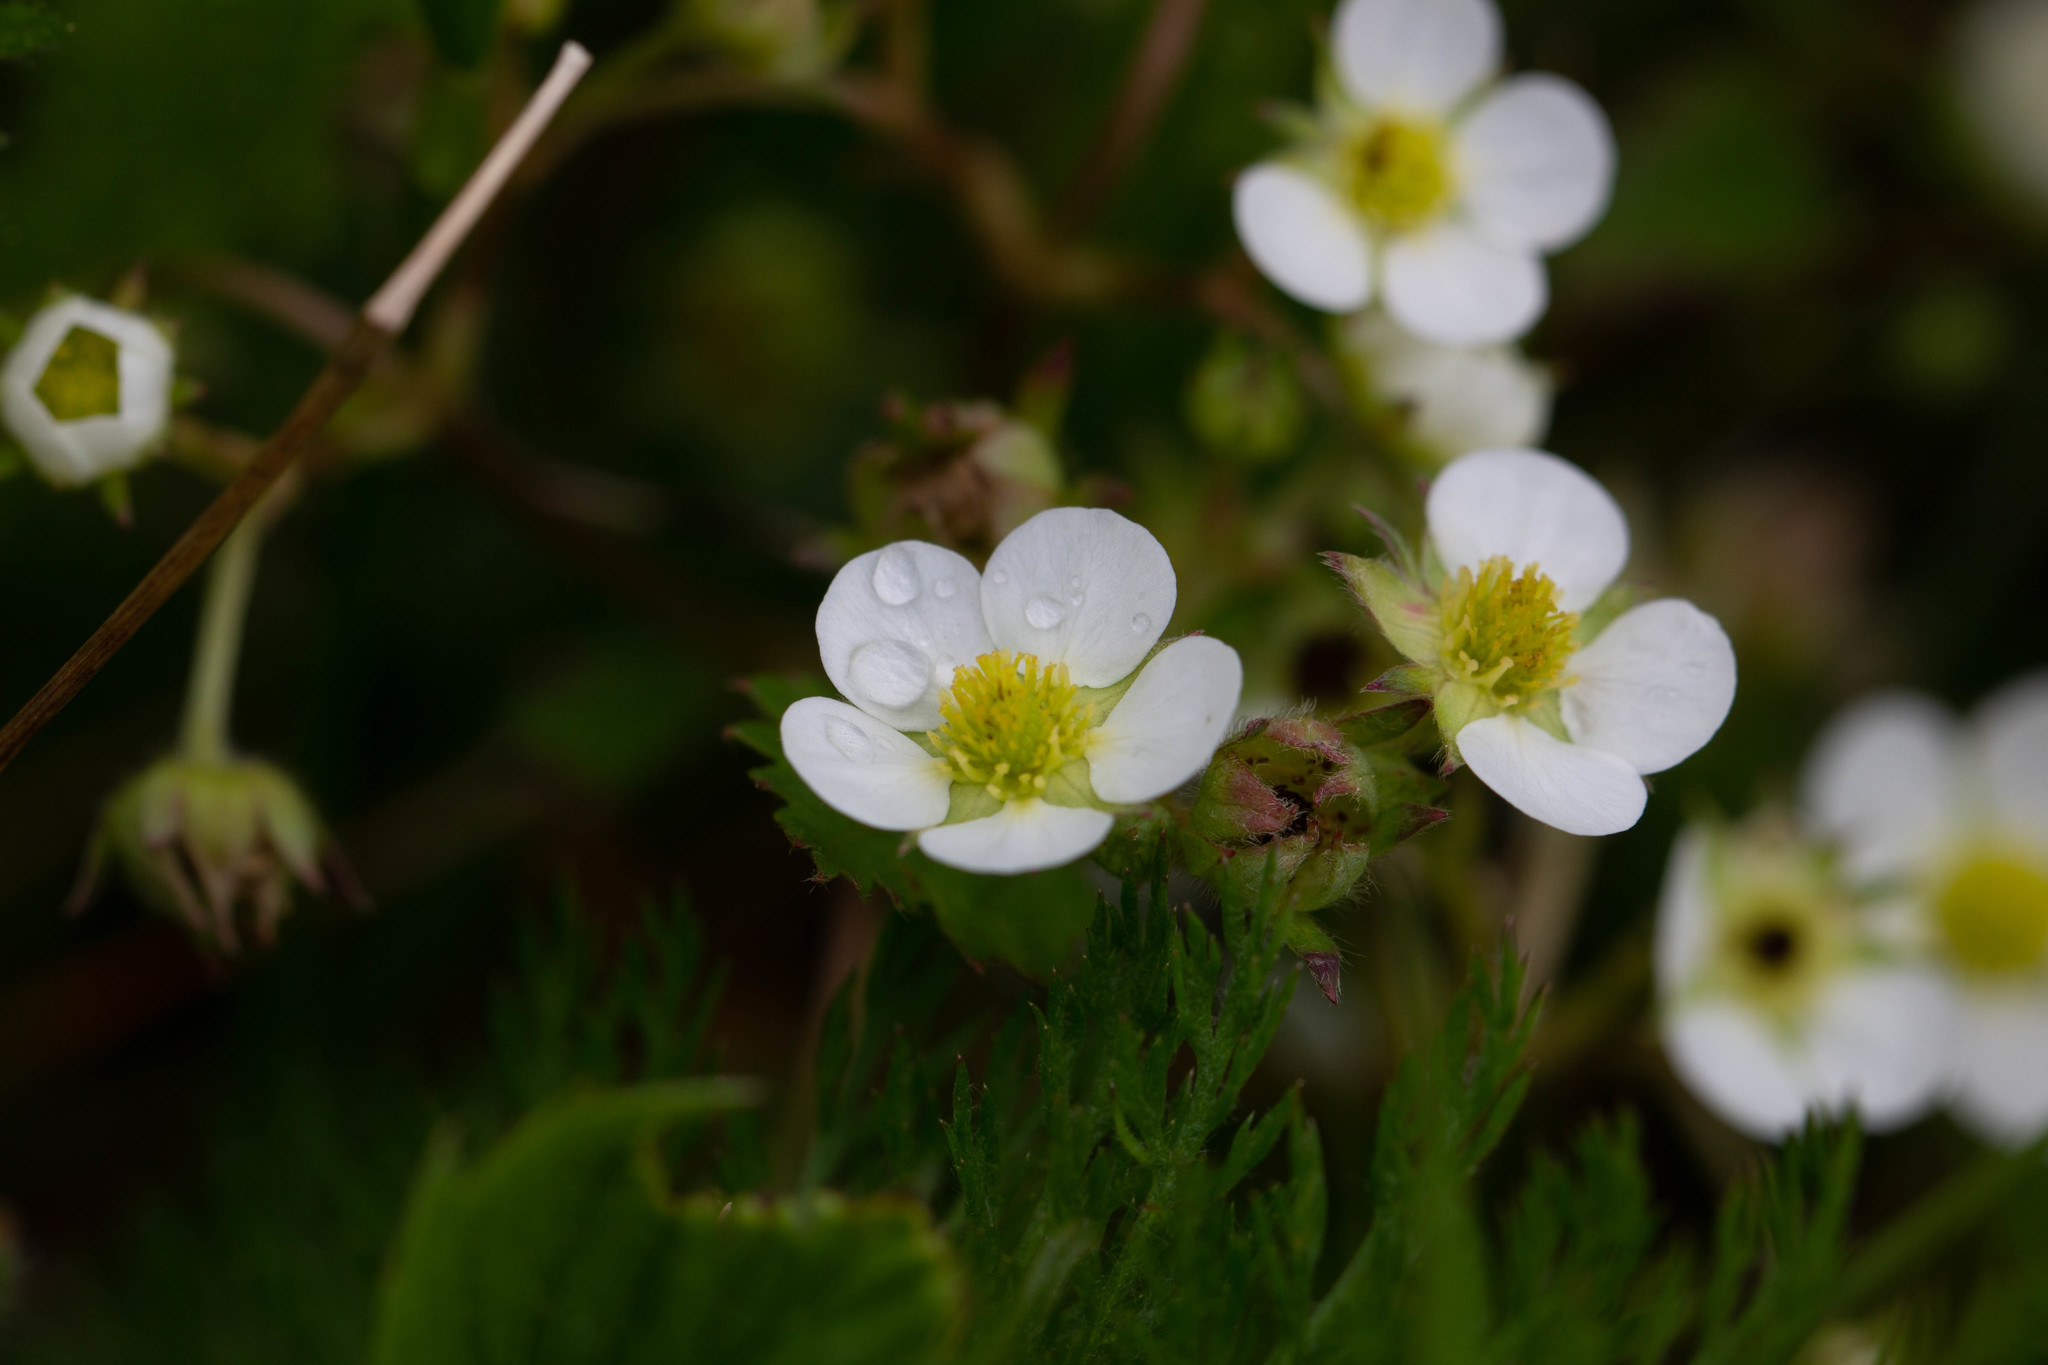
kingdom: Plantae
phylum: Tracheophyta
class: Magnoliopsida
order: Rosales
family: Rosaceae
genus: Fragaria
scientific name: Fragaria virginiana
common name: Thickleaved wild strawberry
